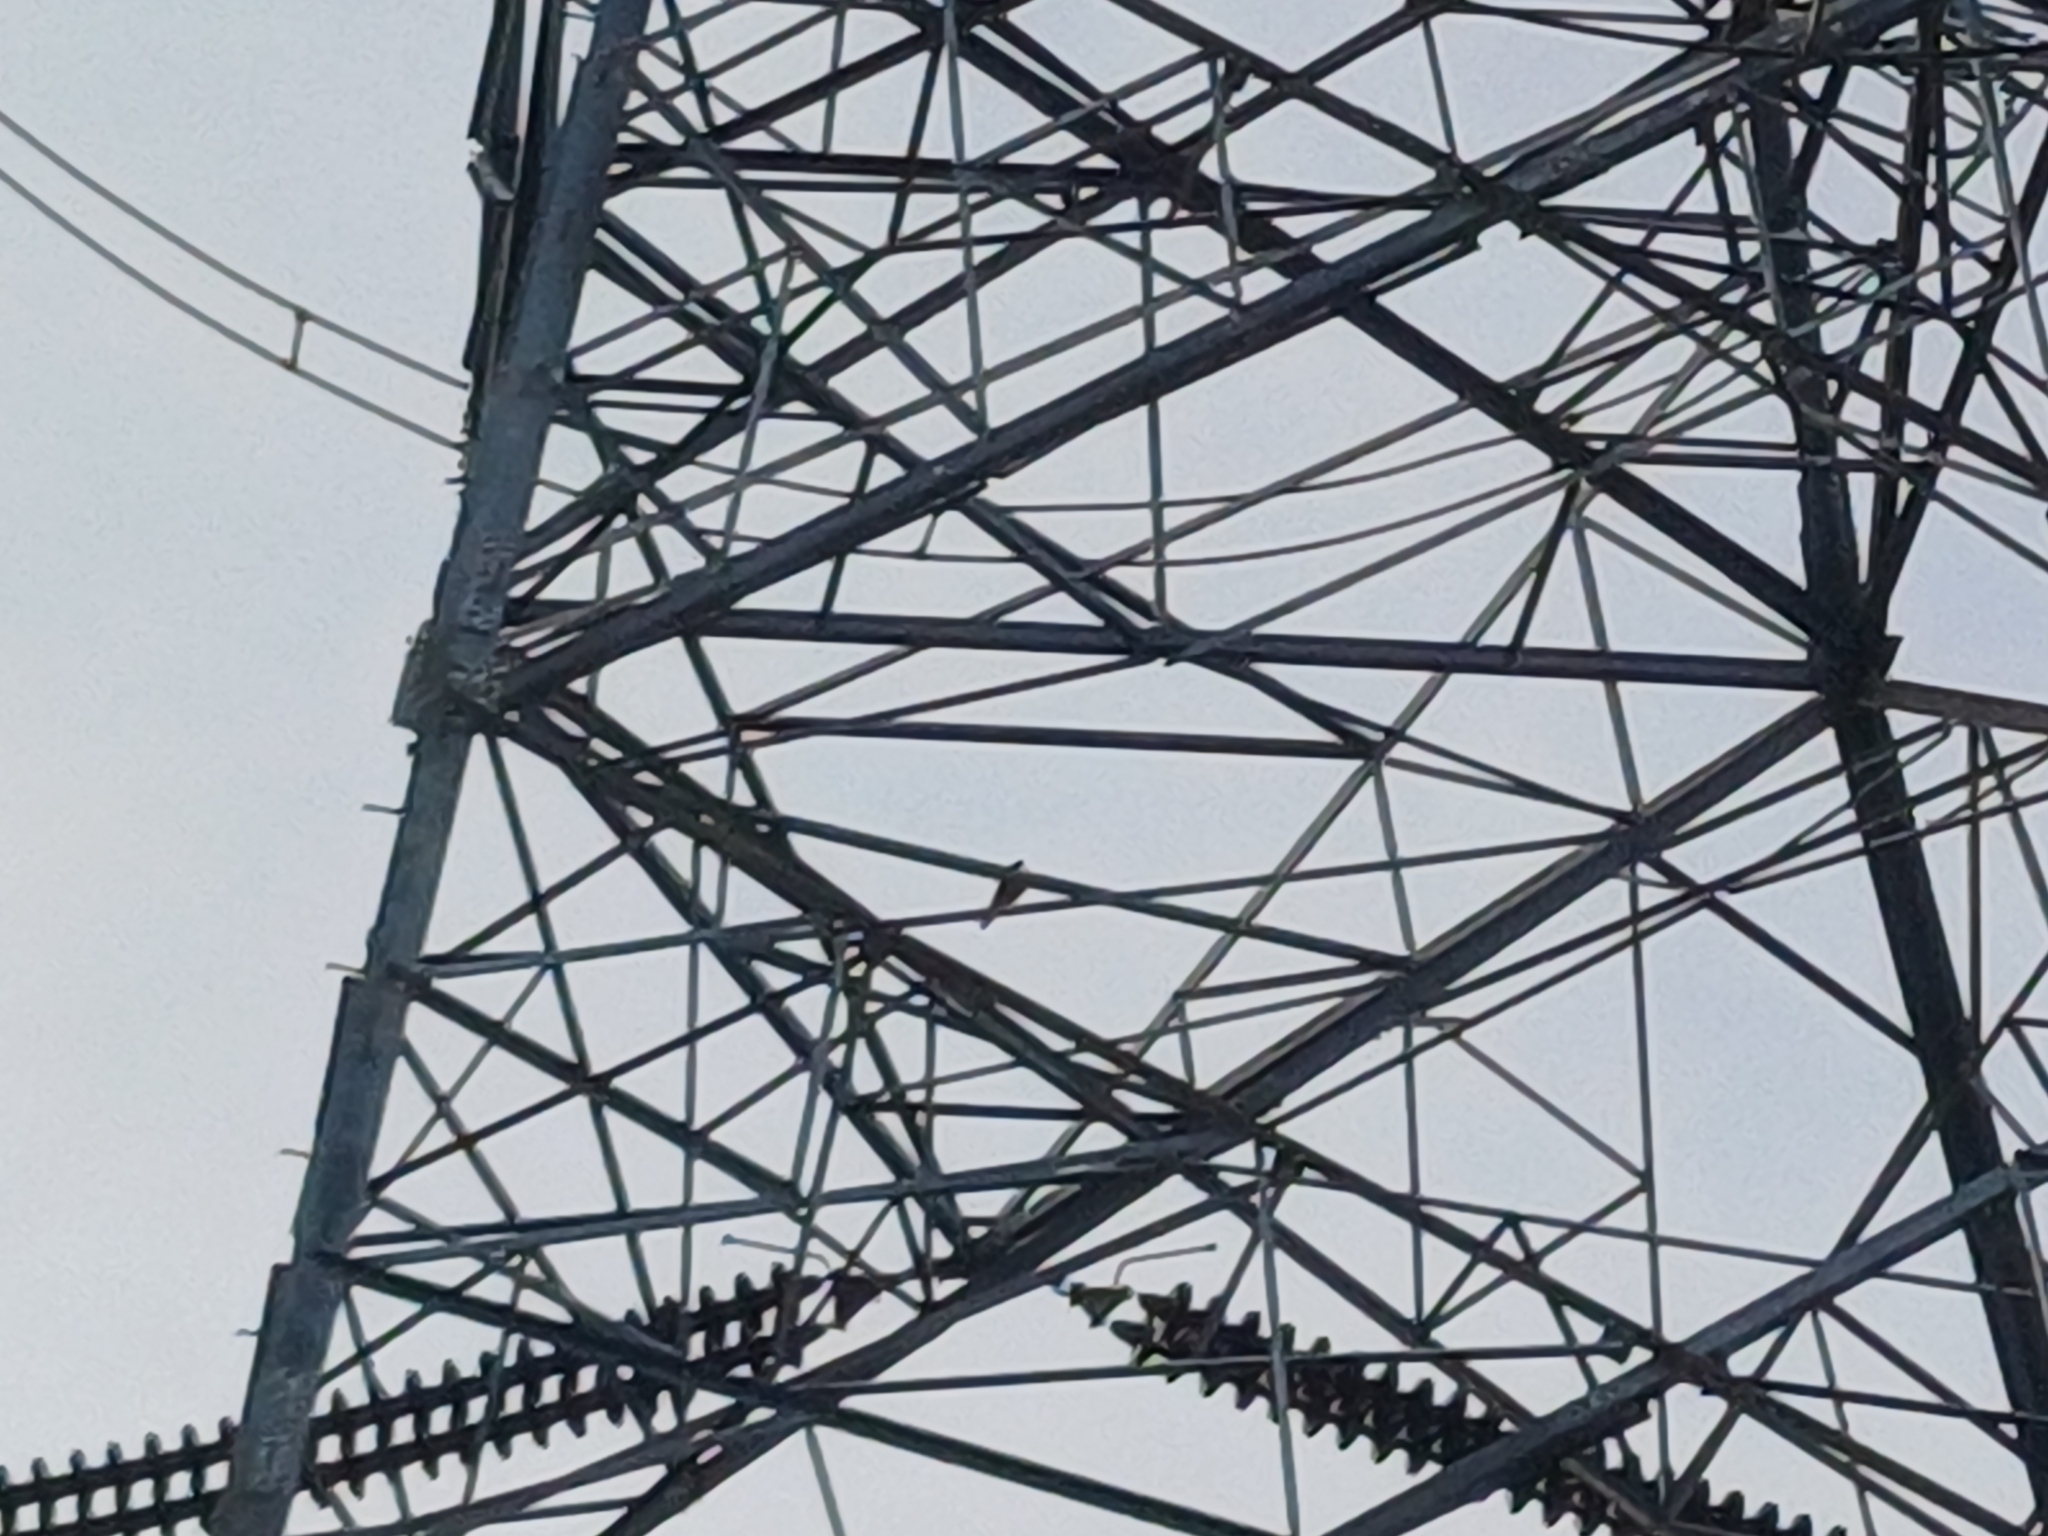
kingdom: Animalia
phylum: Chordata
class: Aves
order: Falconiformes
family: Falconidae
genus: Falco
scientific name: Falco peregrinus
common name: Peregrine falcon
